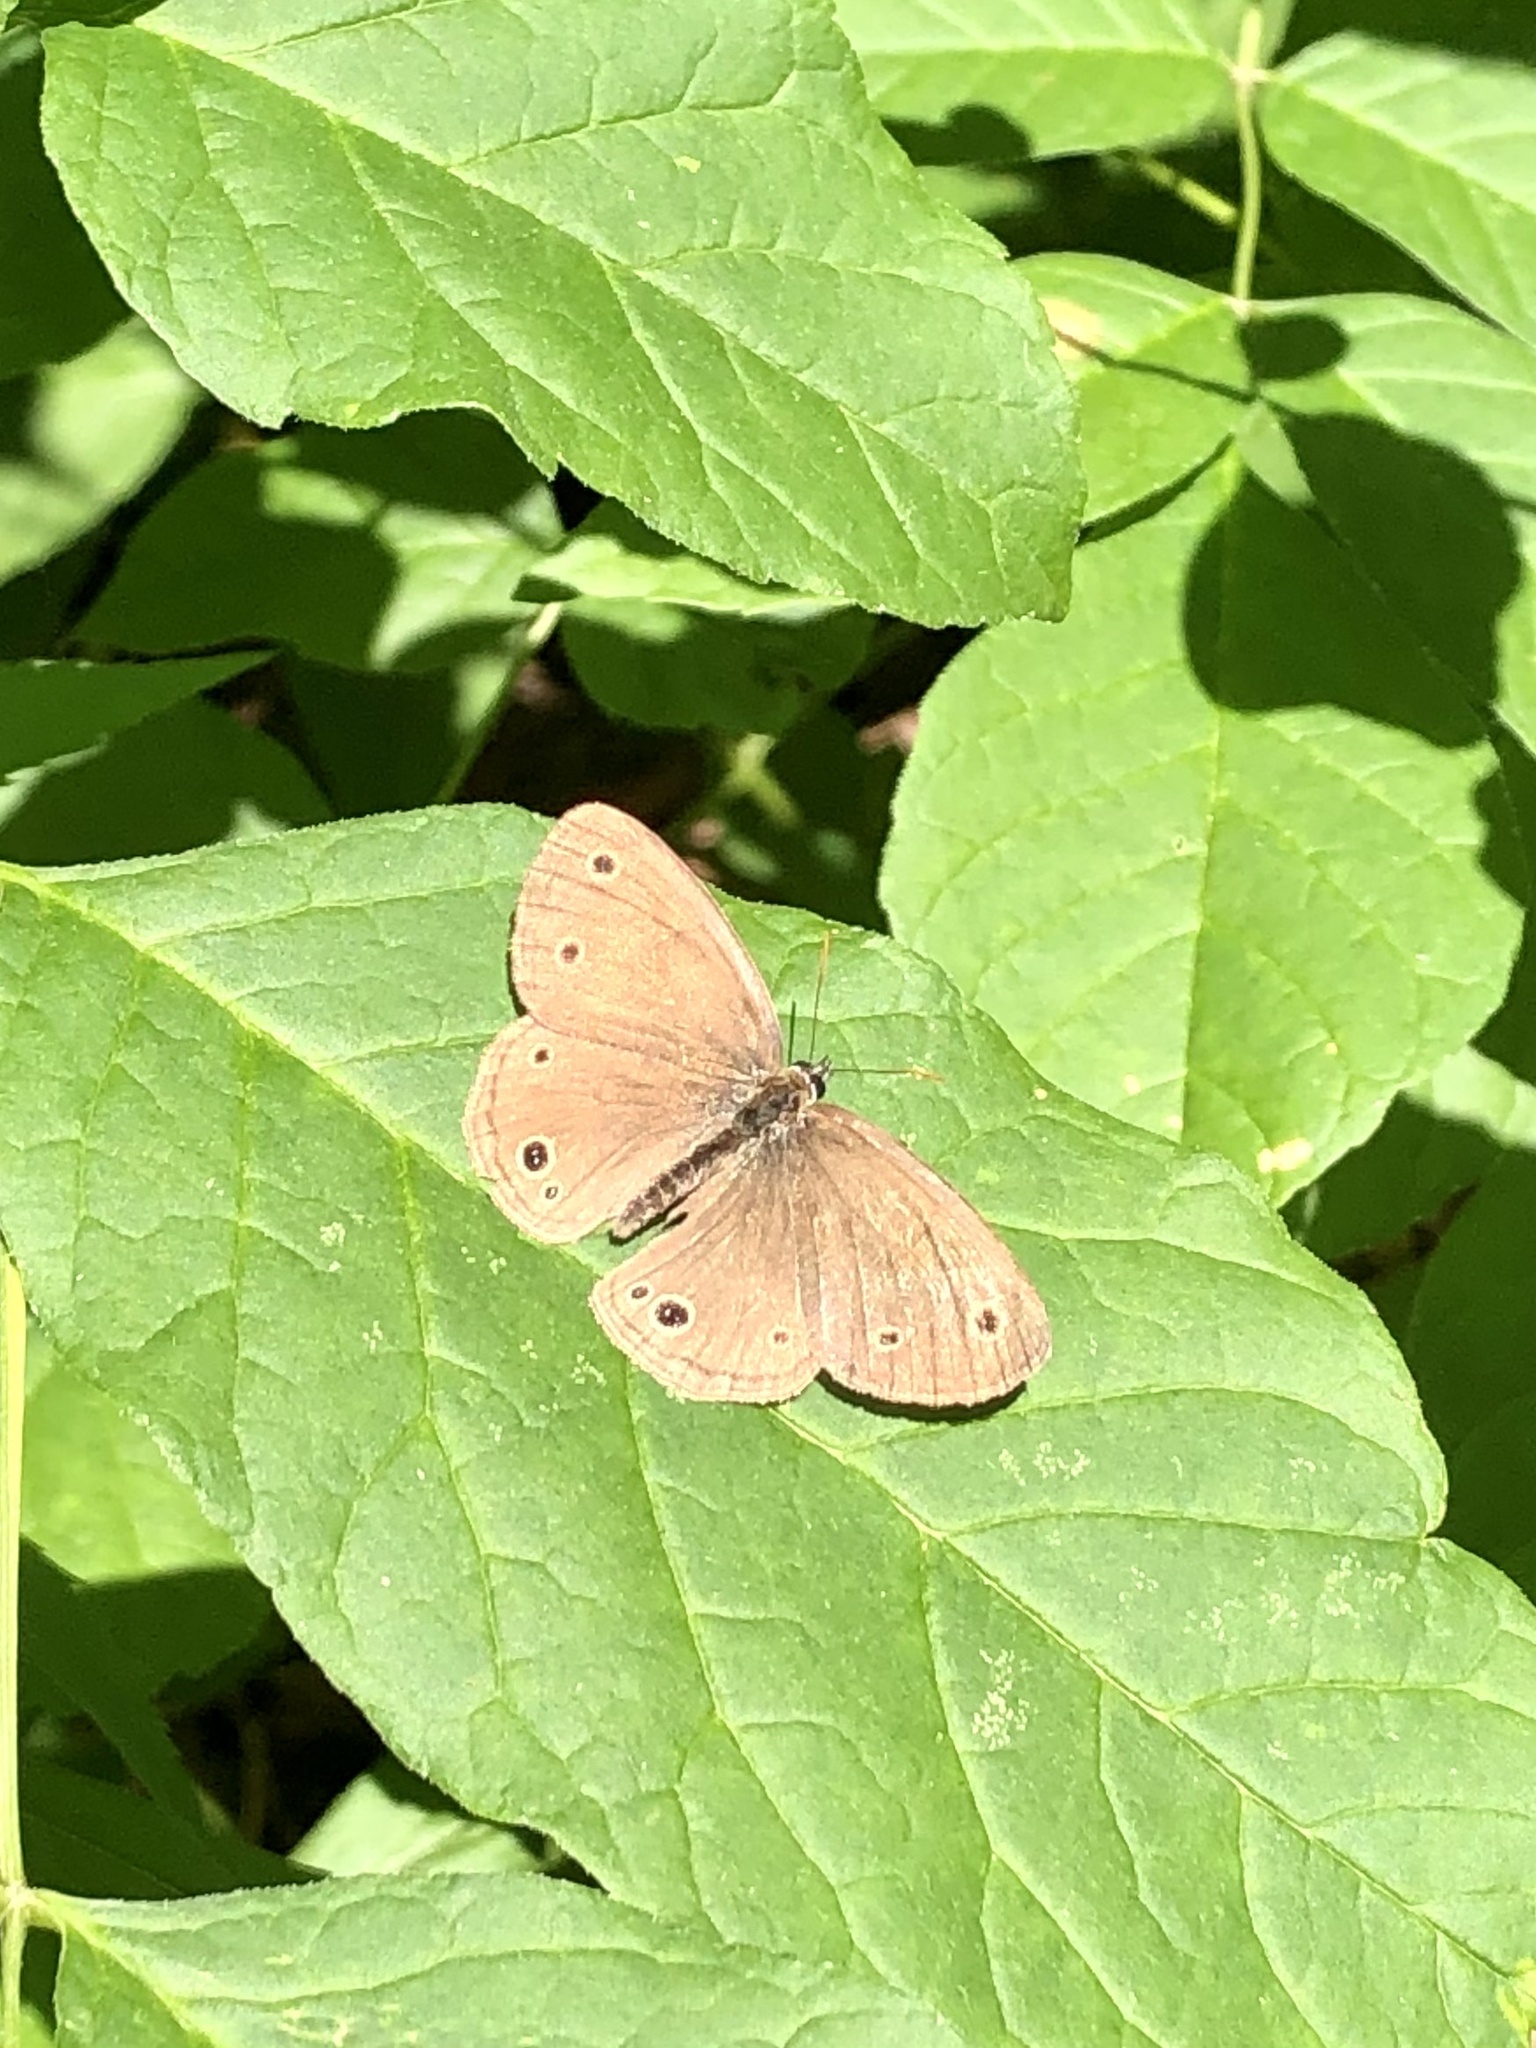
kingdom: Animalia
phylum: Arthropoda
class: Insecta
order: Lepidoptera
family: Nymphalidae
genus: Euptychia
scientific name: Euptychia cymela
